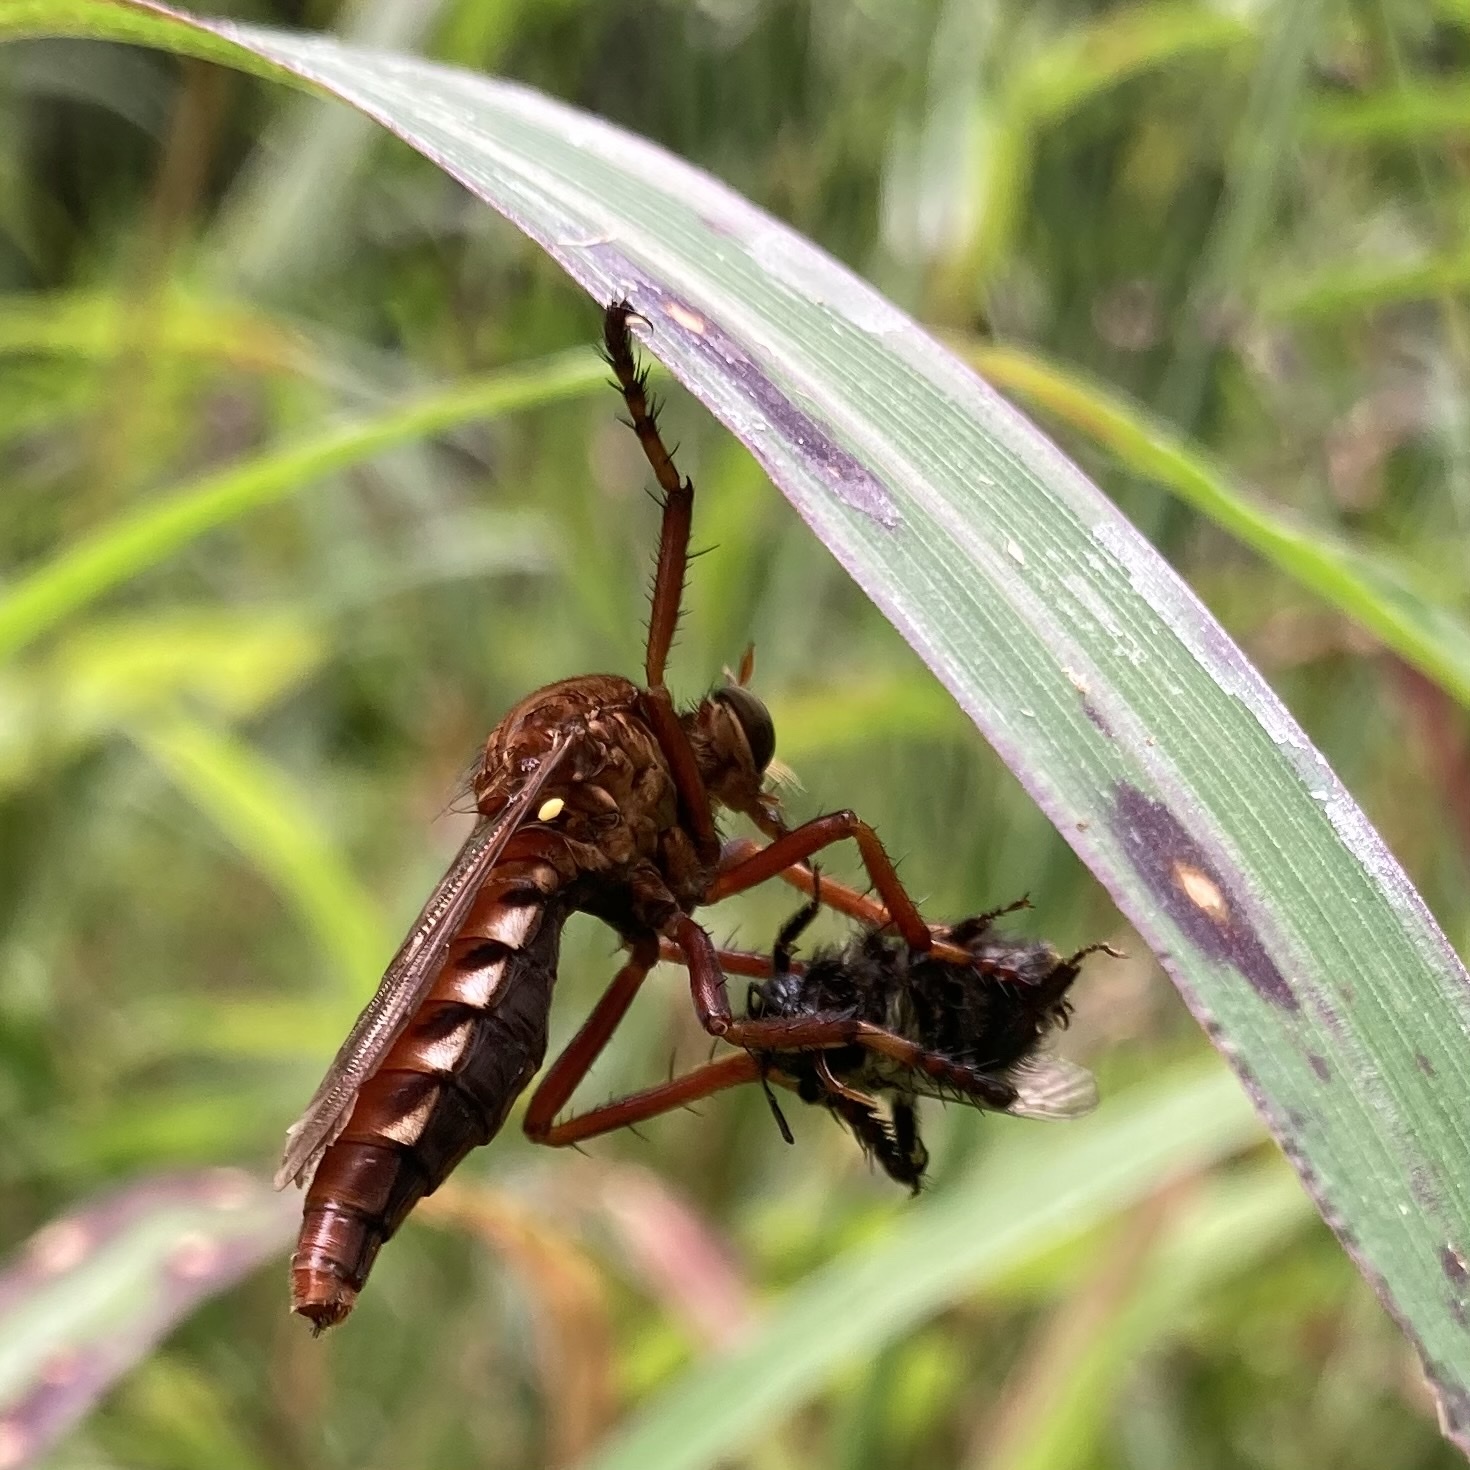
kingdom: Animalia
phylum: Arthropoda
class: Insecta
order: Diptera
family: Asilidae
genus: Diogmites
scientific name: Diogmites basalis
